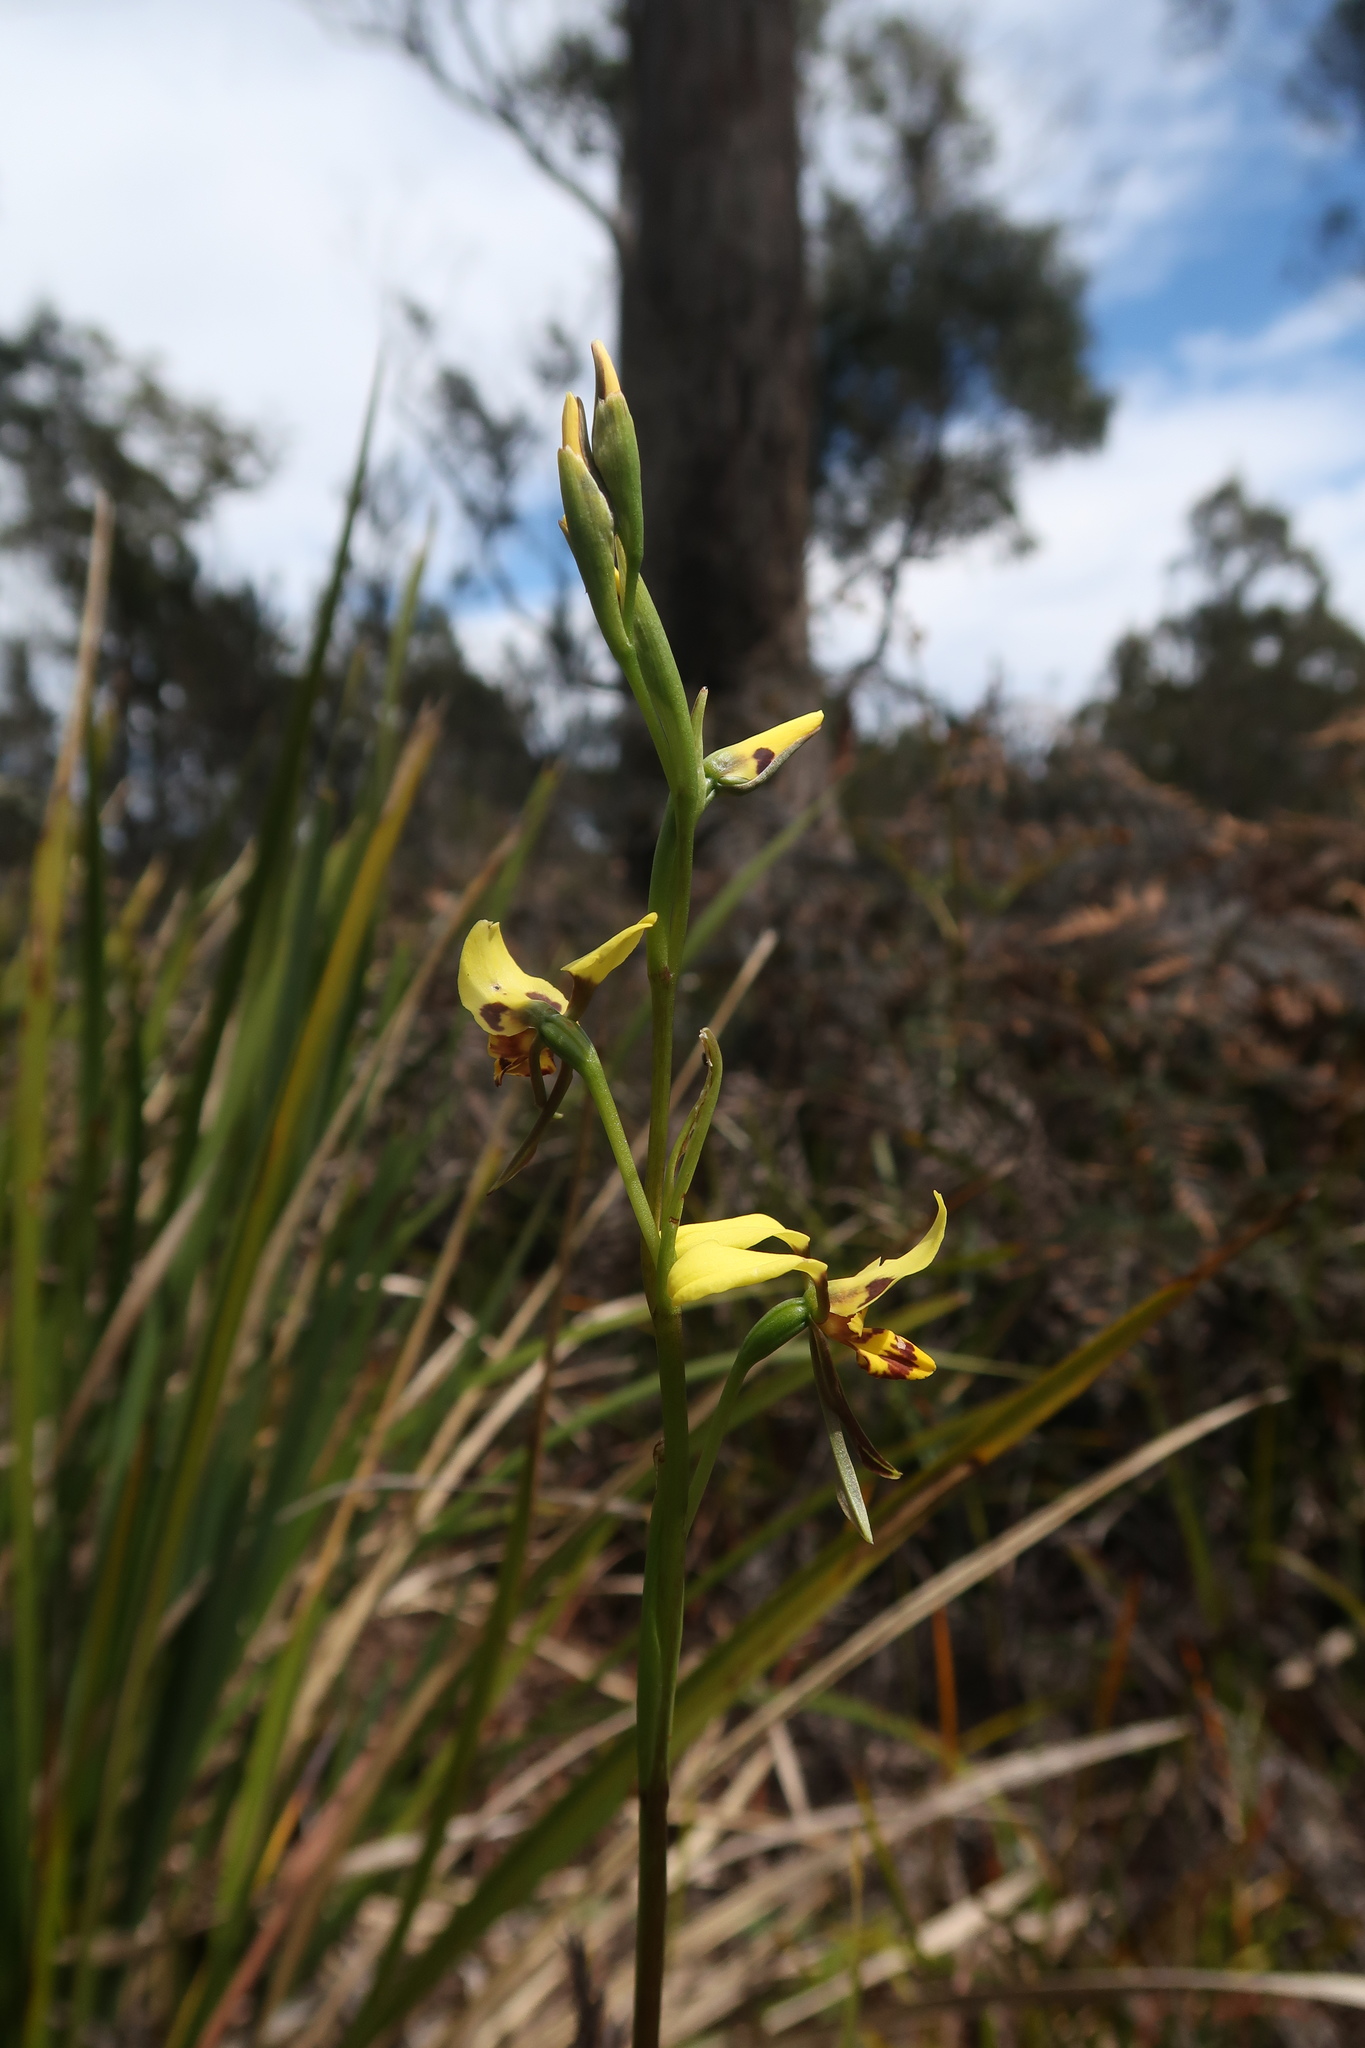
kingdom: Plantae
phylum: Tracheophyta
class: Liliopsida
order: Asparagales
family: Orchidaceae
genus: Diuris
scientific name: Diuris sulphurea
